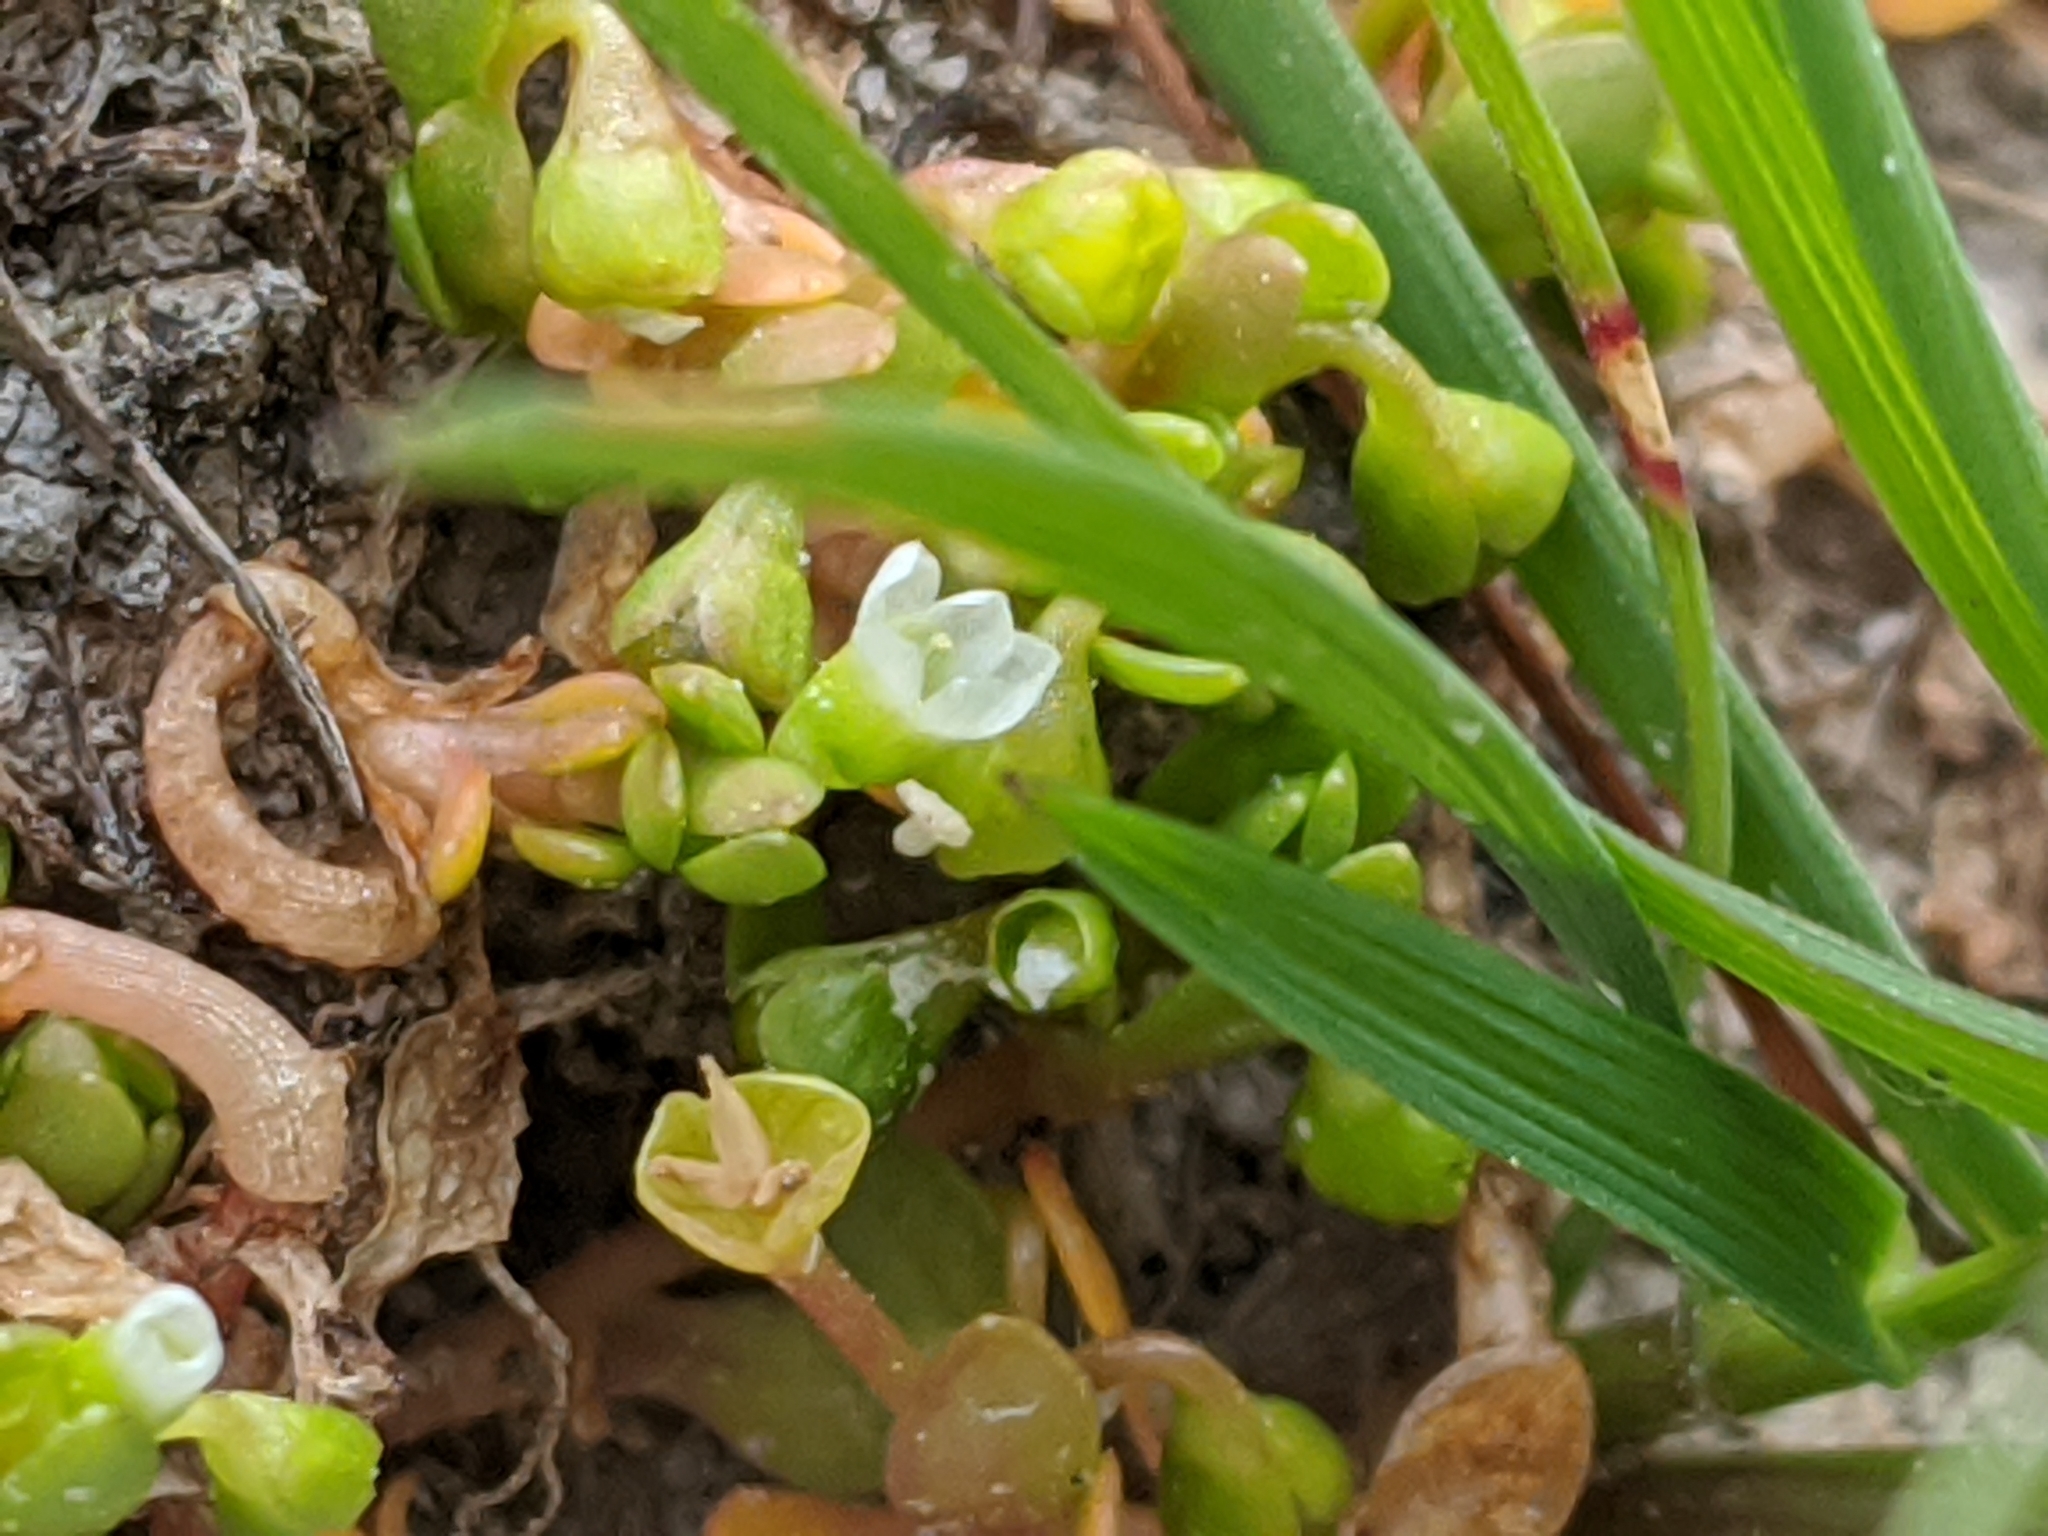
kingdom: Plantae
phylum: Tracheophyta
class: Magnoliopsida
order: Caryophyllales
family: Montiaceae
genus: Montia
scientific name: Montia fontana
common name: Blinks
